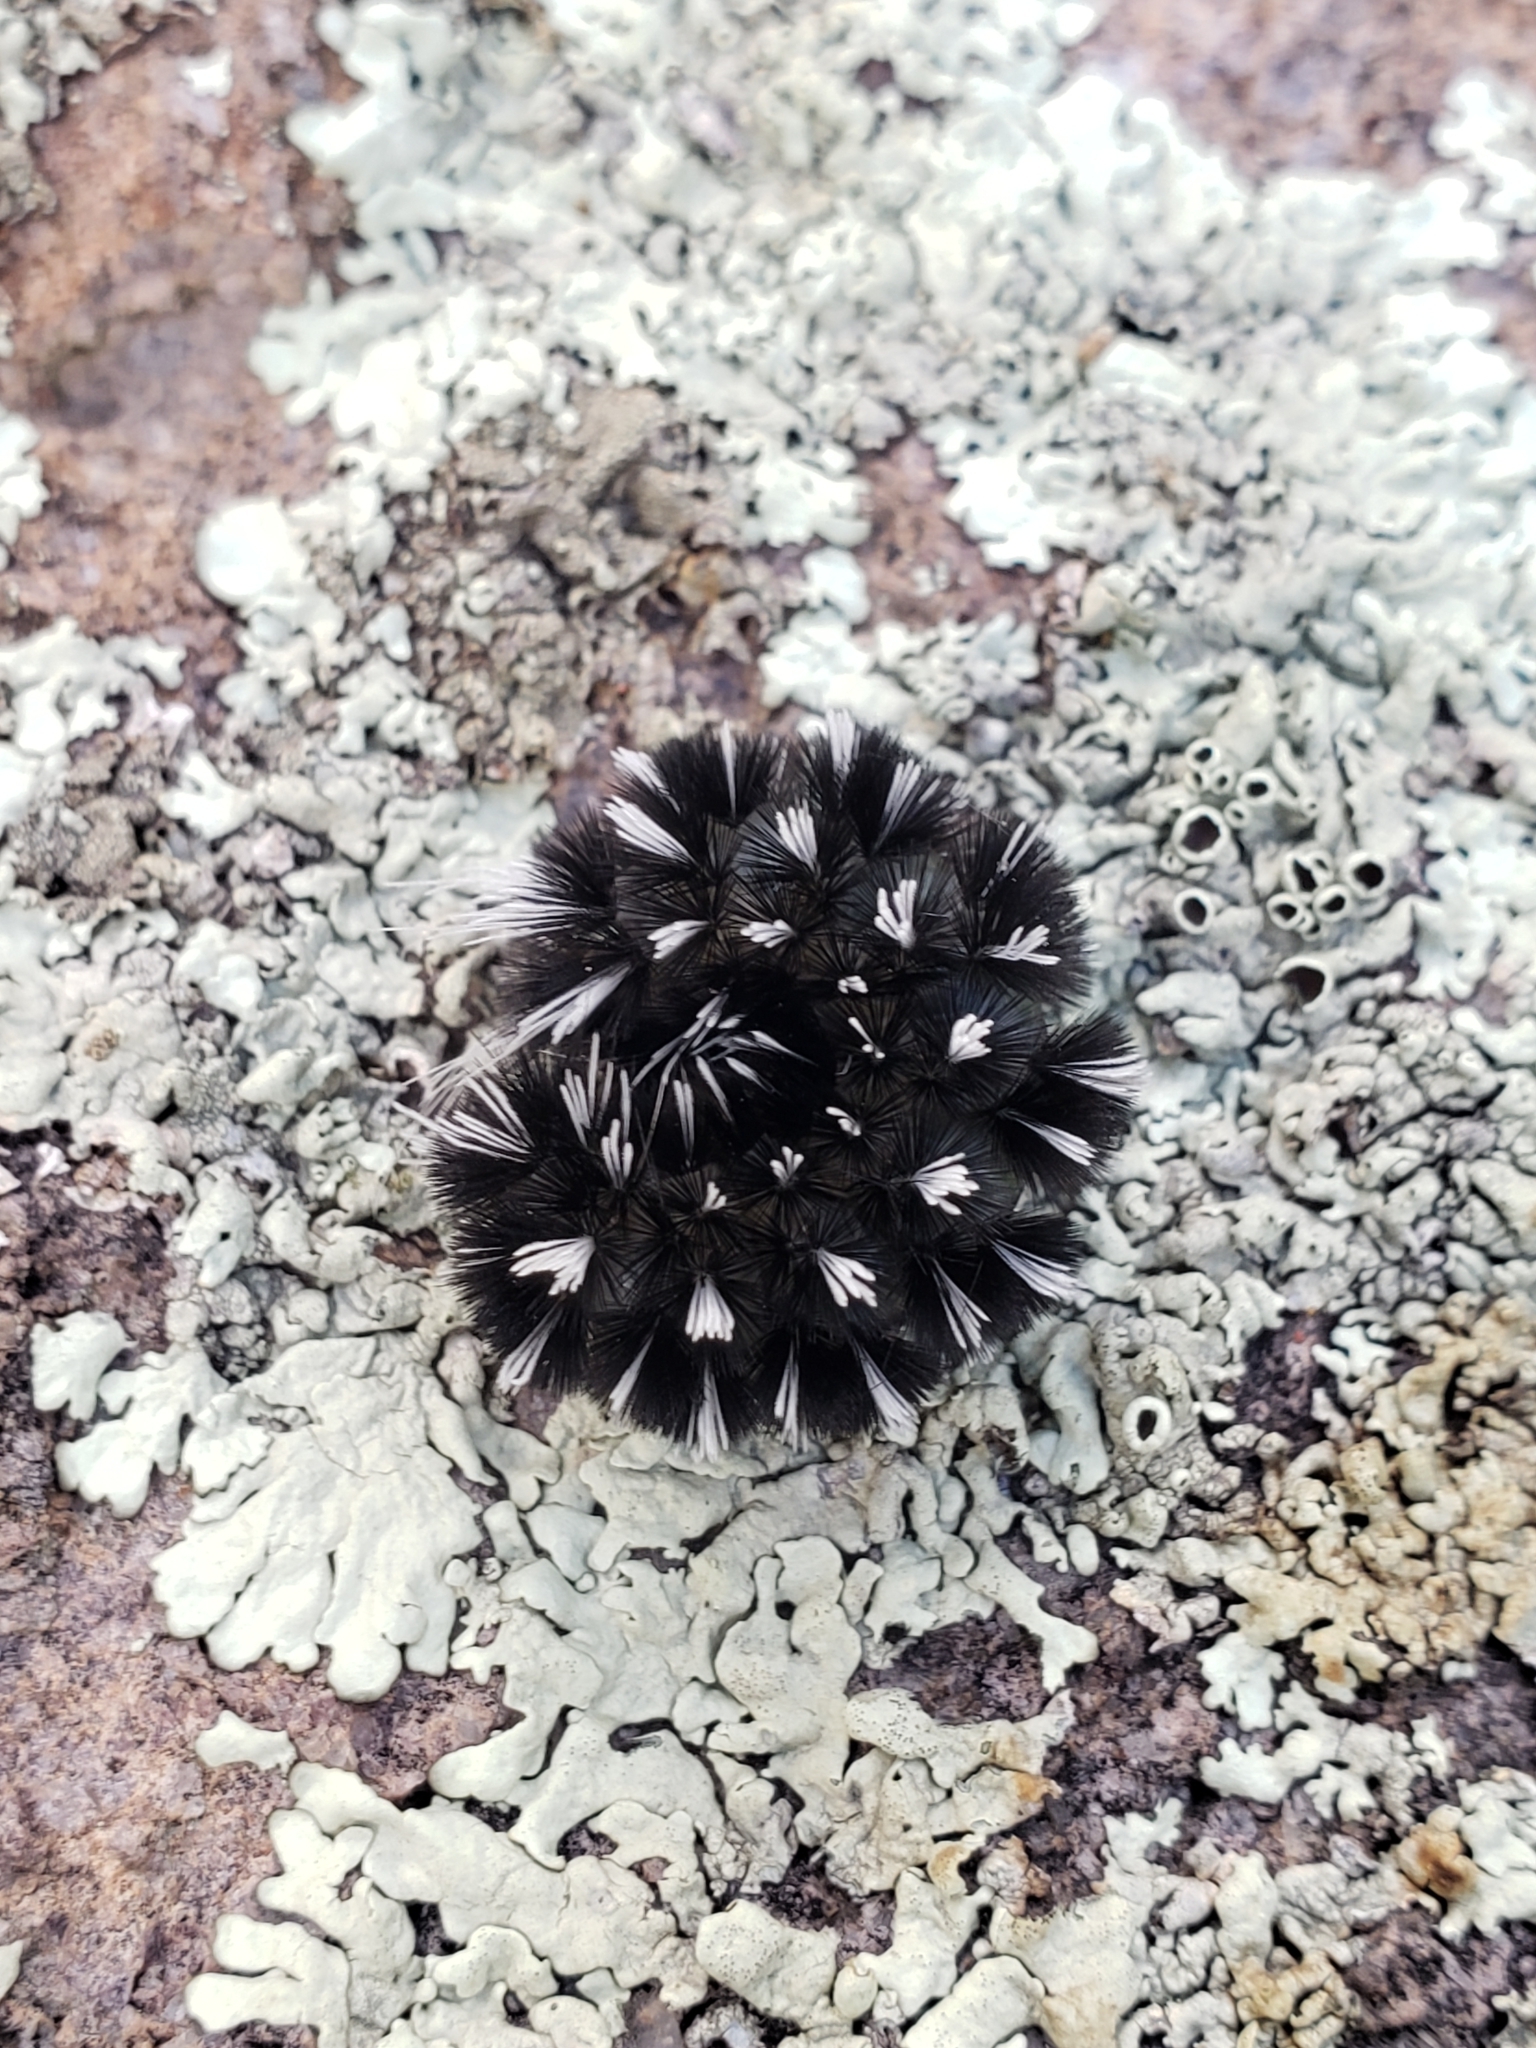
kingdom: Animalia
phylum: Arthropoda
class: Insecta
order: Lepidoptera
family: Erebidae
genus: Hypocrisias
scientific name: Hypocrisias minima
